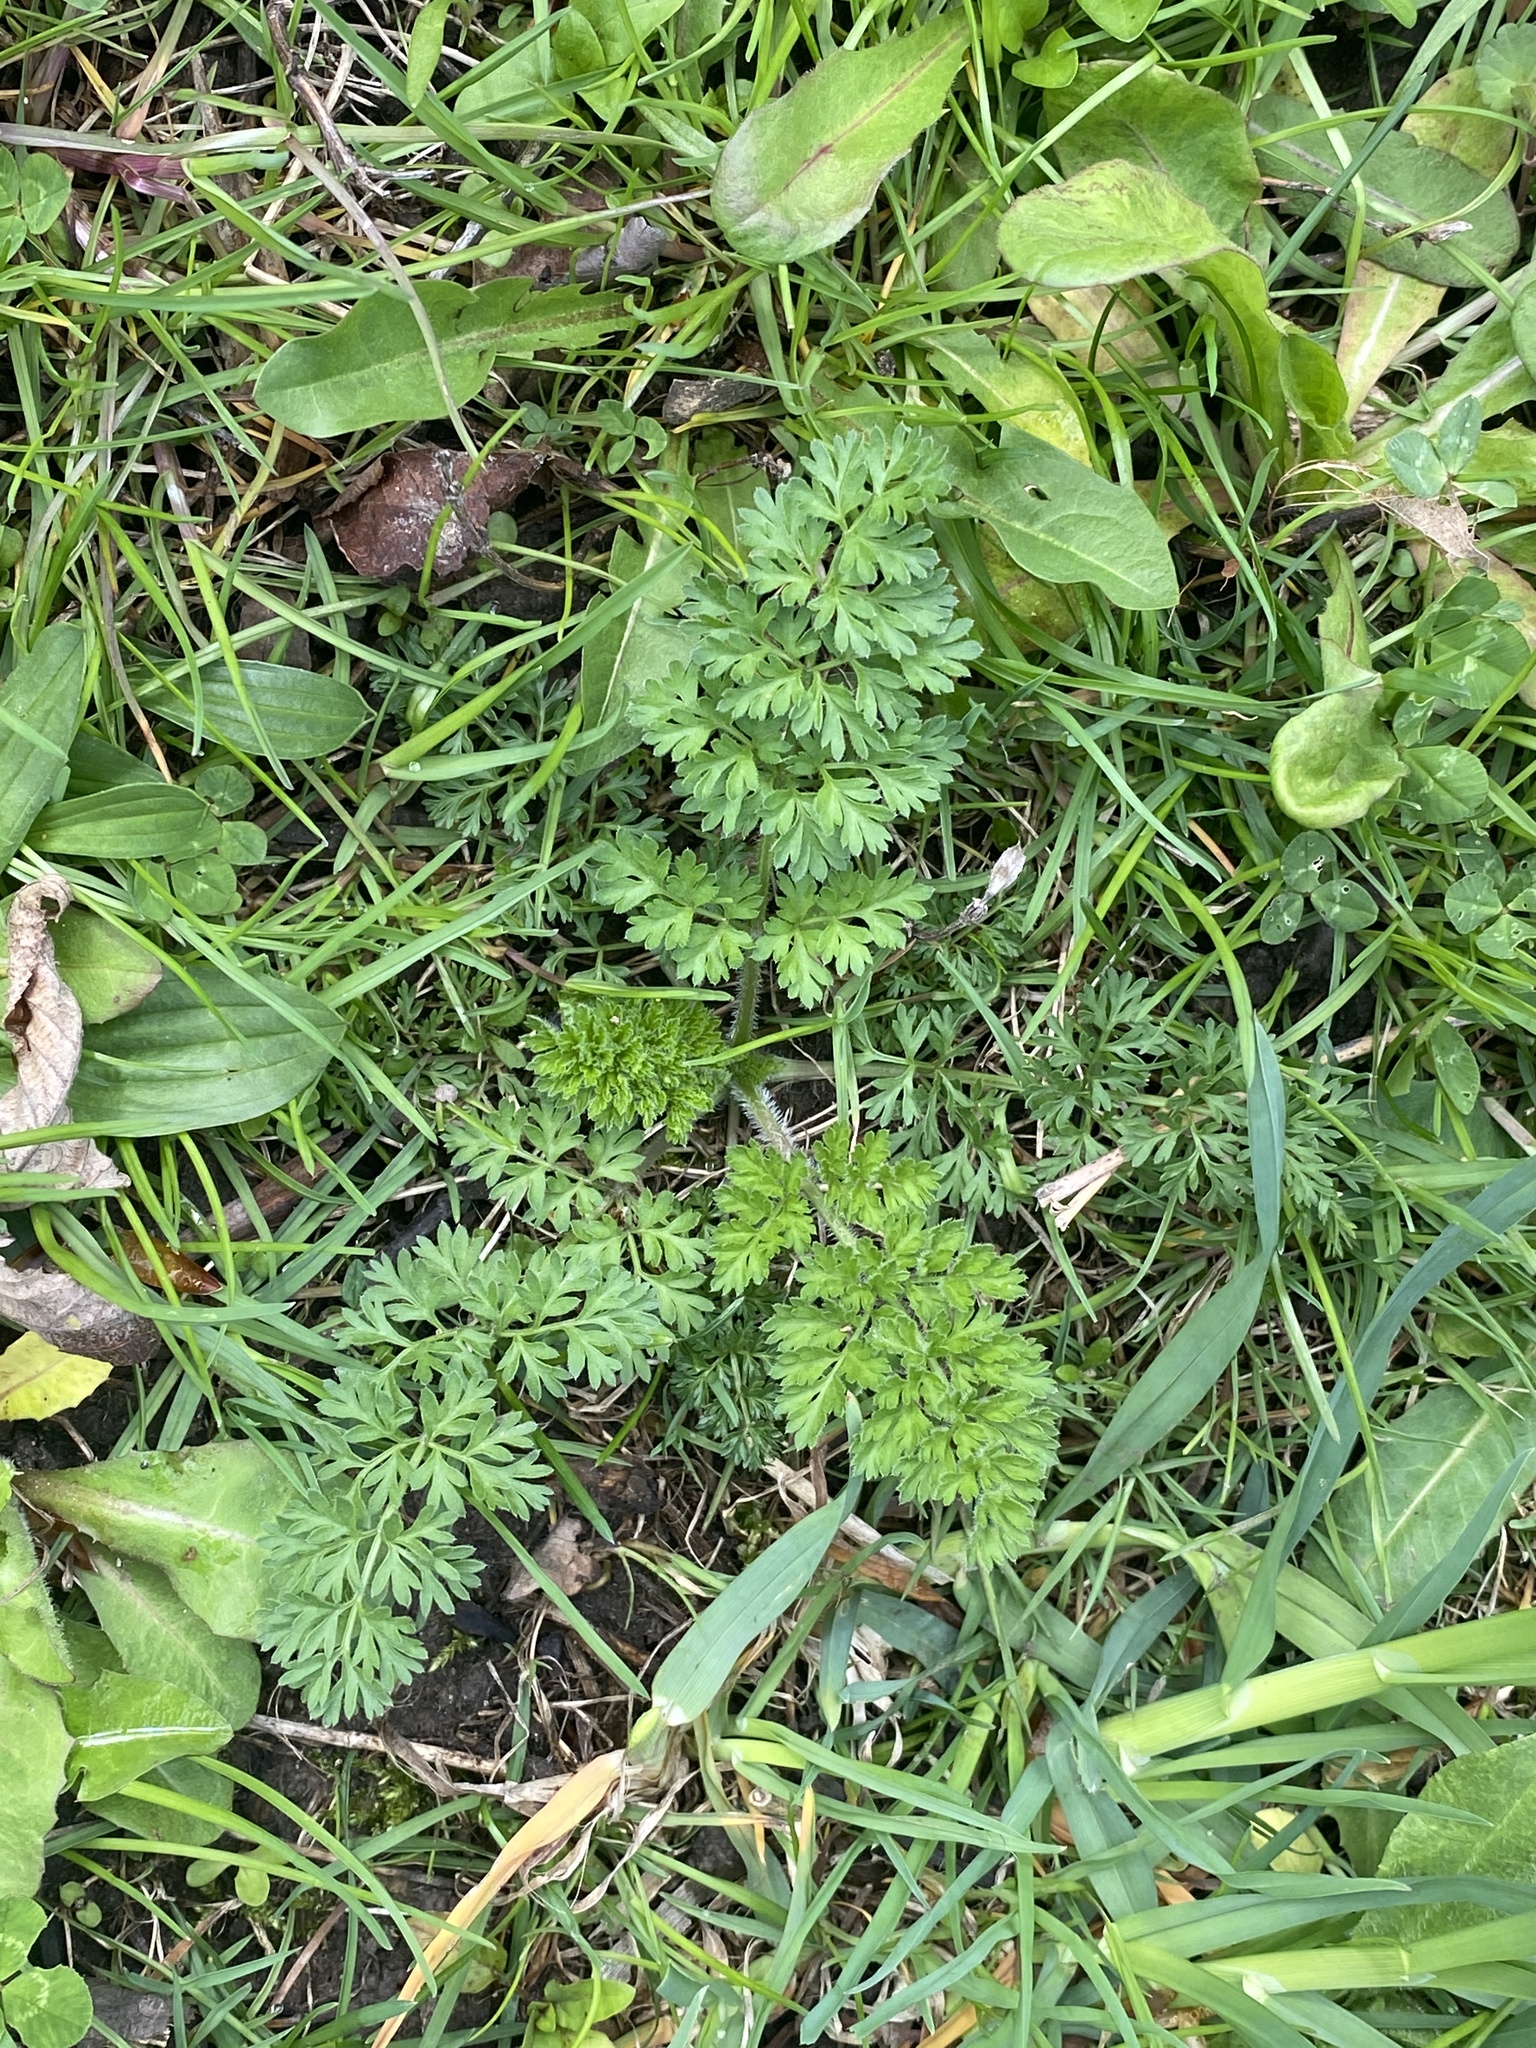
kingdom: Plantae
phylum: Tracheophyta
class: Magnoliopsida
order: Apiales
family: Apiaceae
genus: Daucus
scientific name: Daucus carota
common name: Wild carrot
